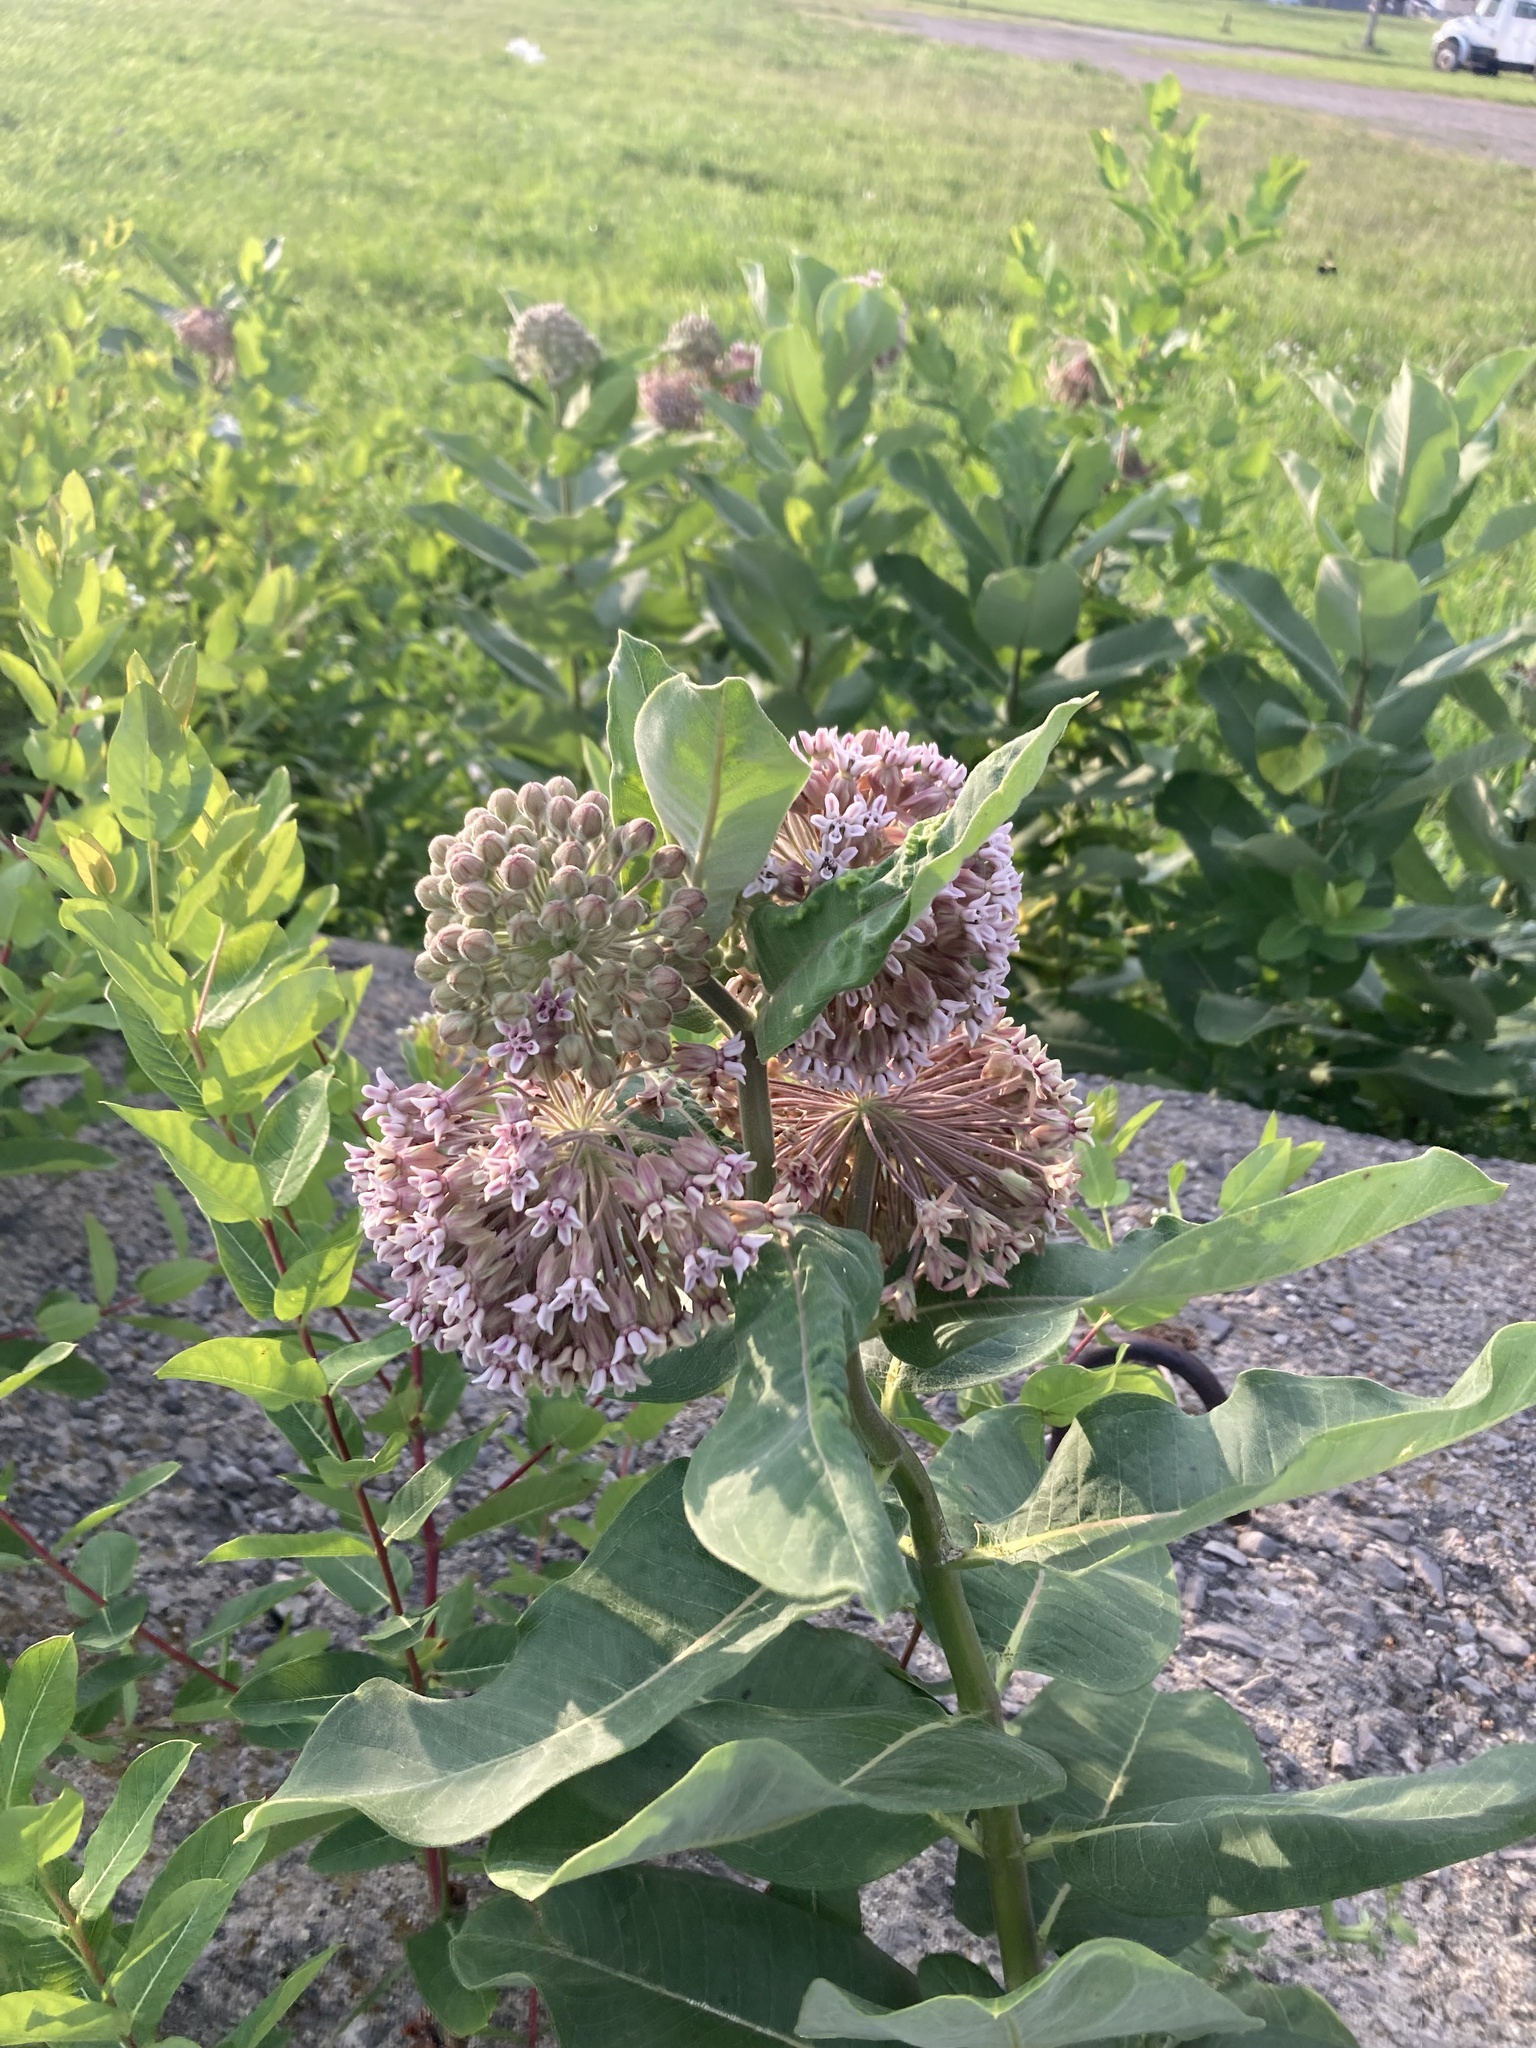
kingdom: Plantae
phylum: Tracheophyta
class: Magnoliopsida
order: Gentianales
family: Apocynaceae
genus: Asclepias
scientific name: Asclepias syriaca
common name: Common milkweed
